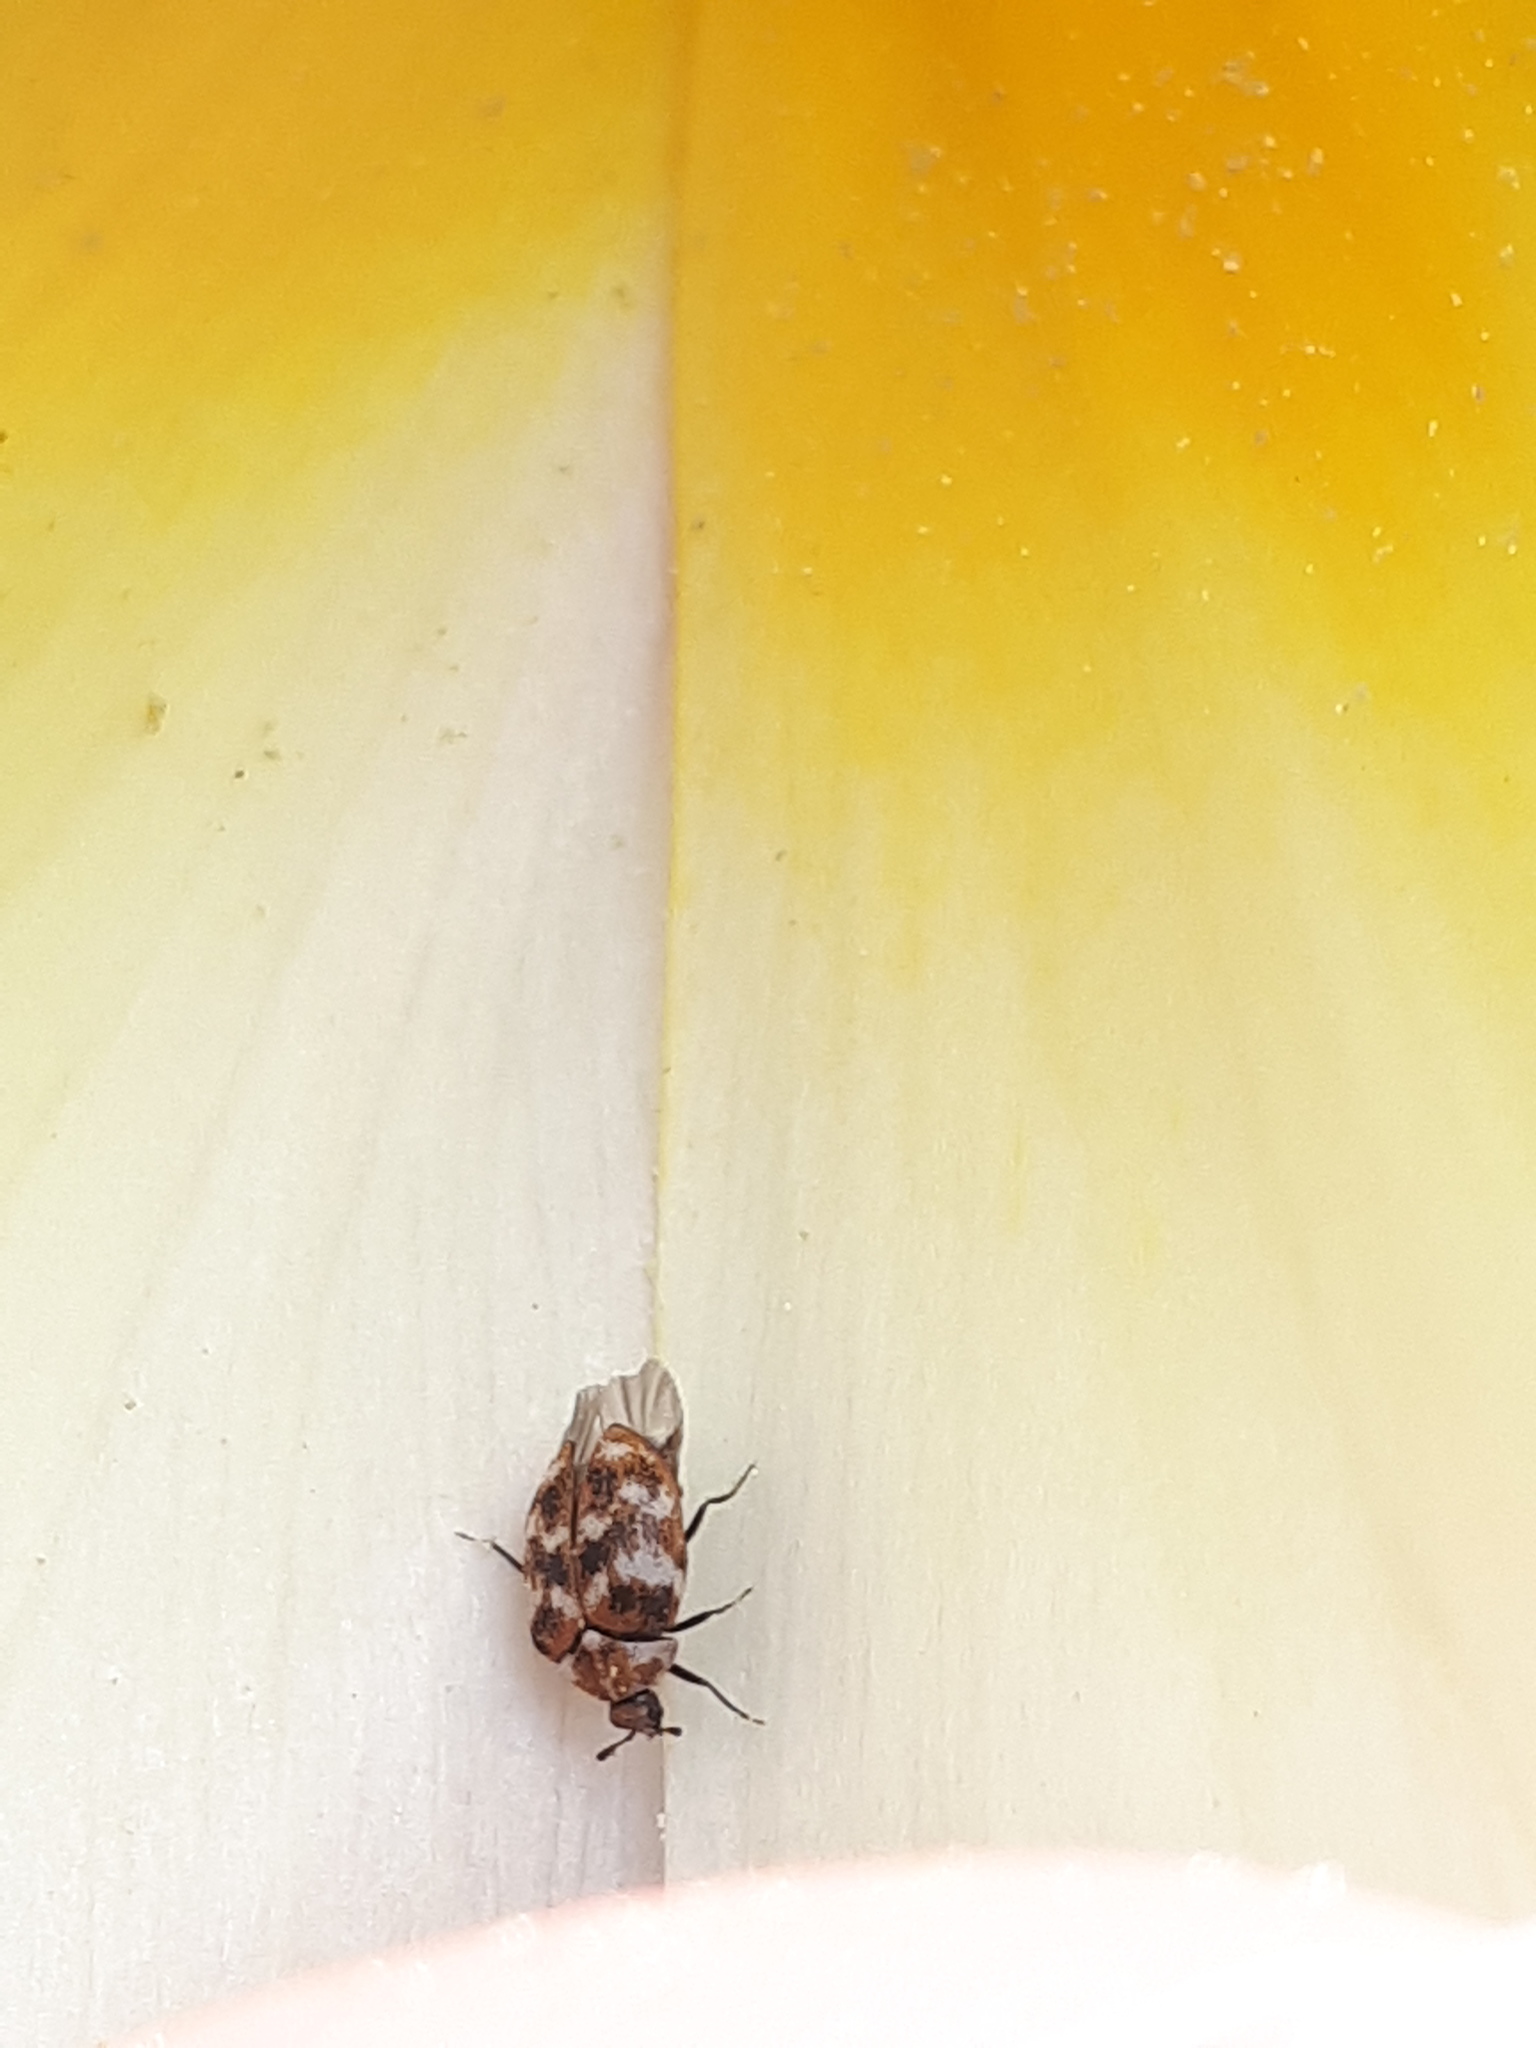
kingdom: Animalia
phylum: Arthropoda
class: Insecta
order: Coleoptera
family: Dermestidae
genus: Anthrenus
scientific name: Anthrenus verbasci
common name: Varied carpet beetle
